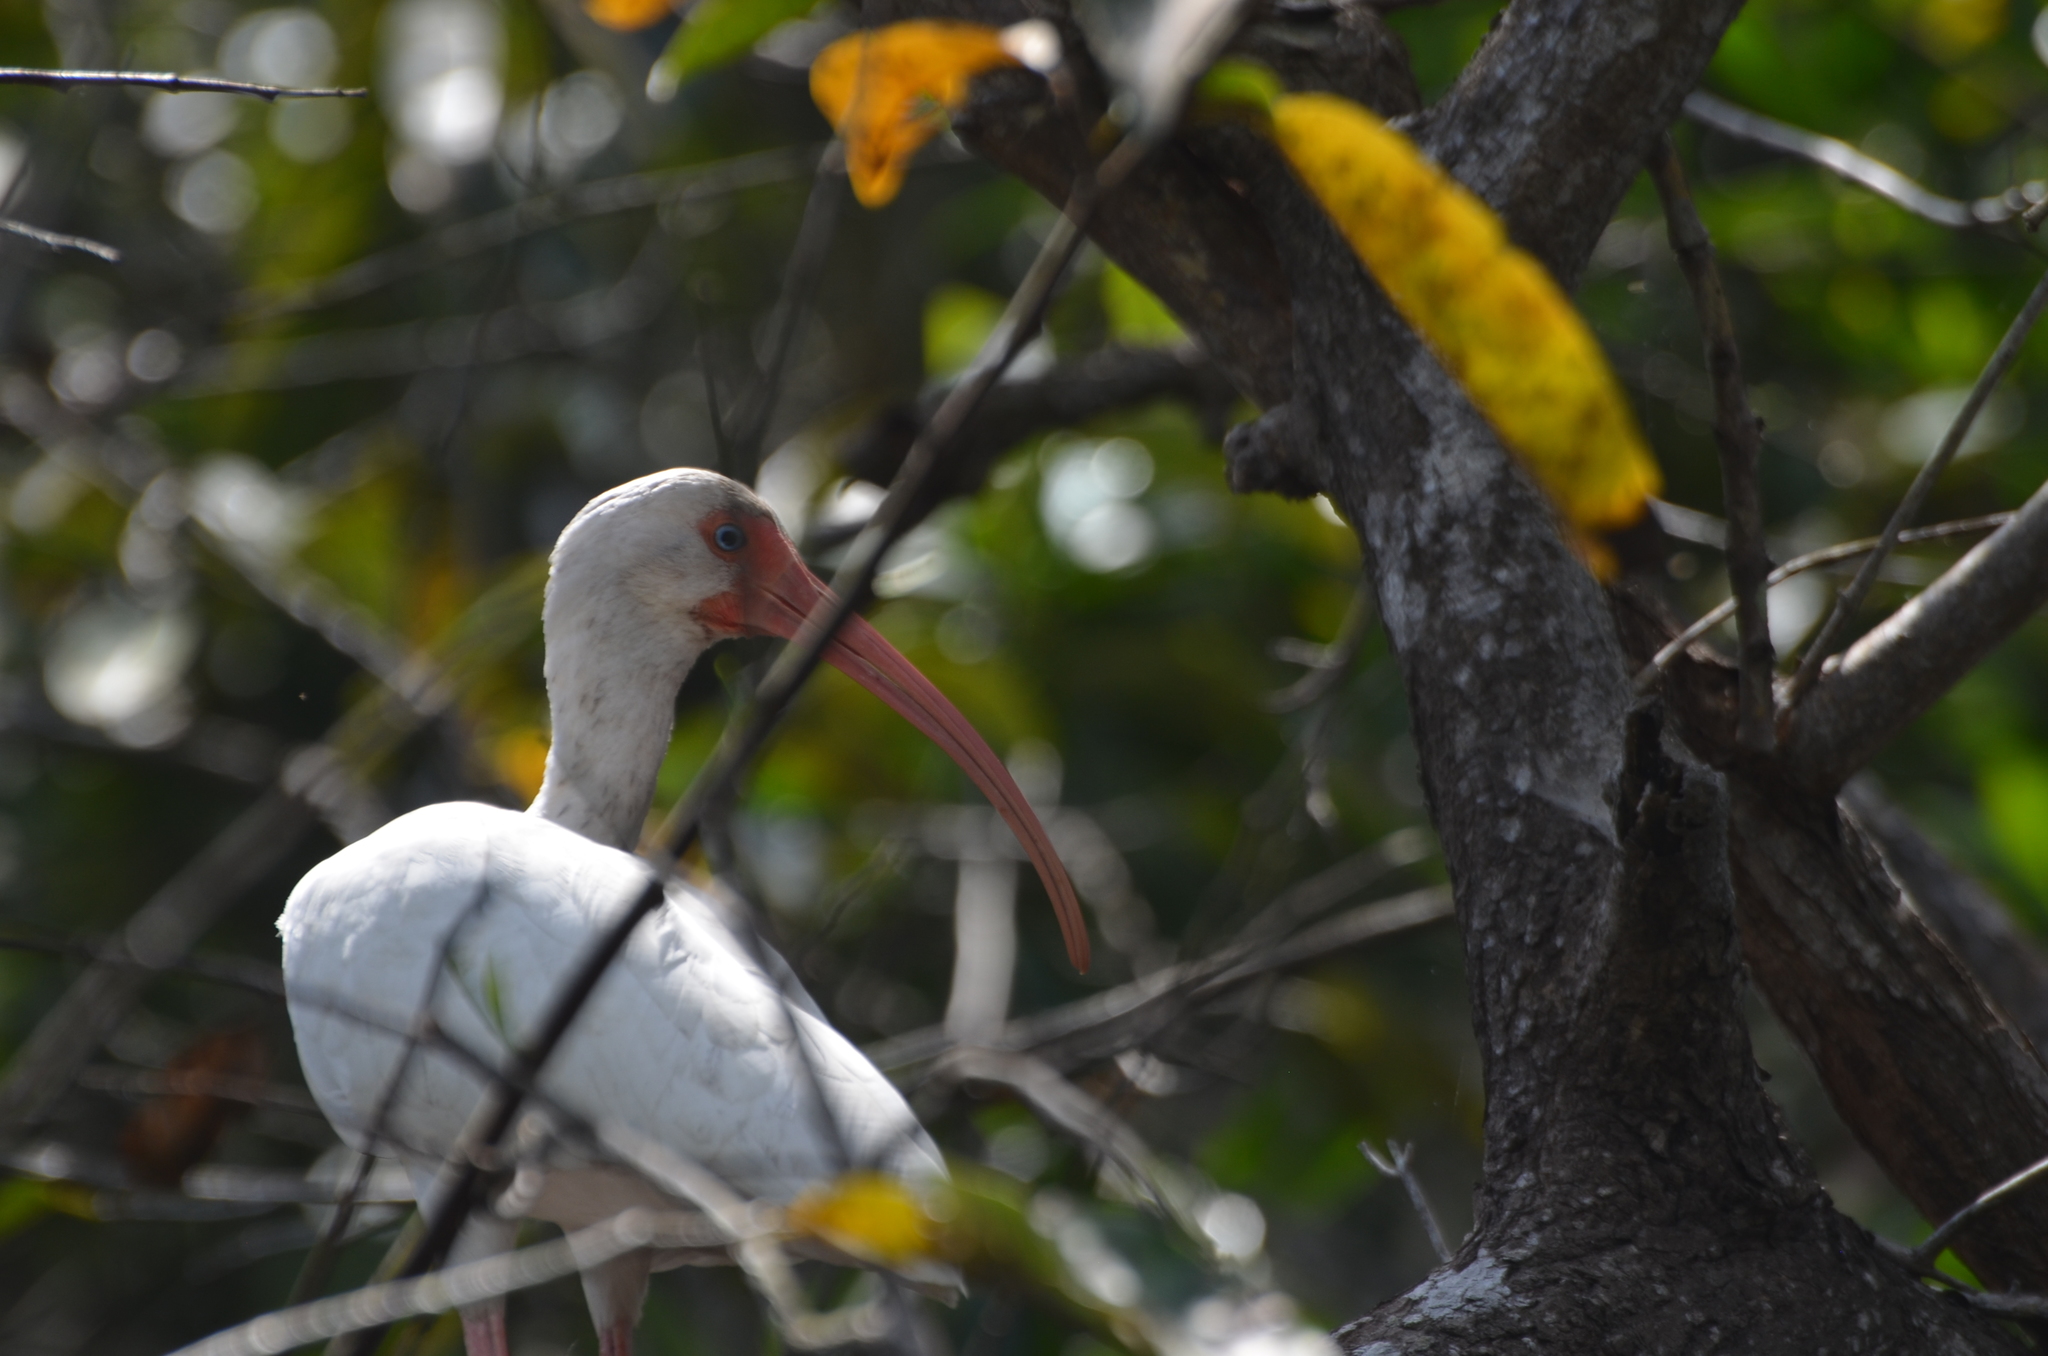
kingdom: Animalia
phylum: Chordata
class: Aves
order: Pelecaniformes
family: Threskiornithidae
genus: Eudocimus
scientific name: Eudocimus albus
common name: White ibis
